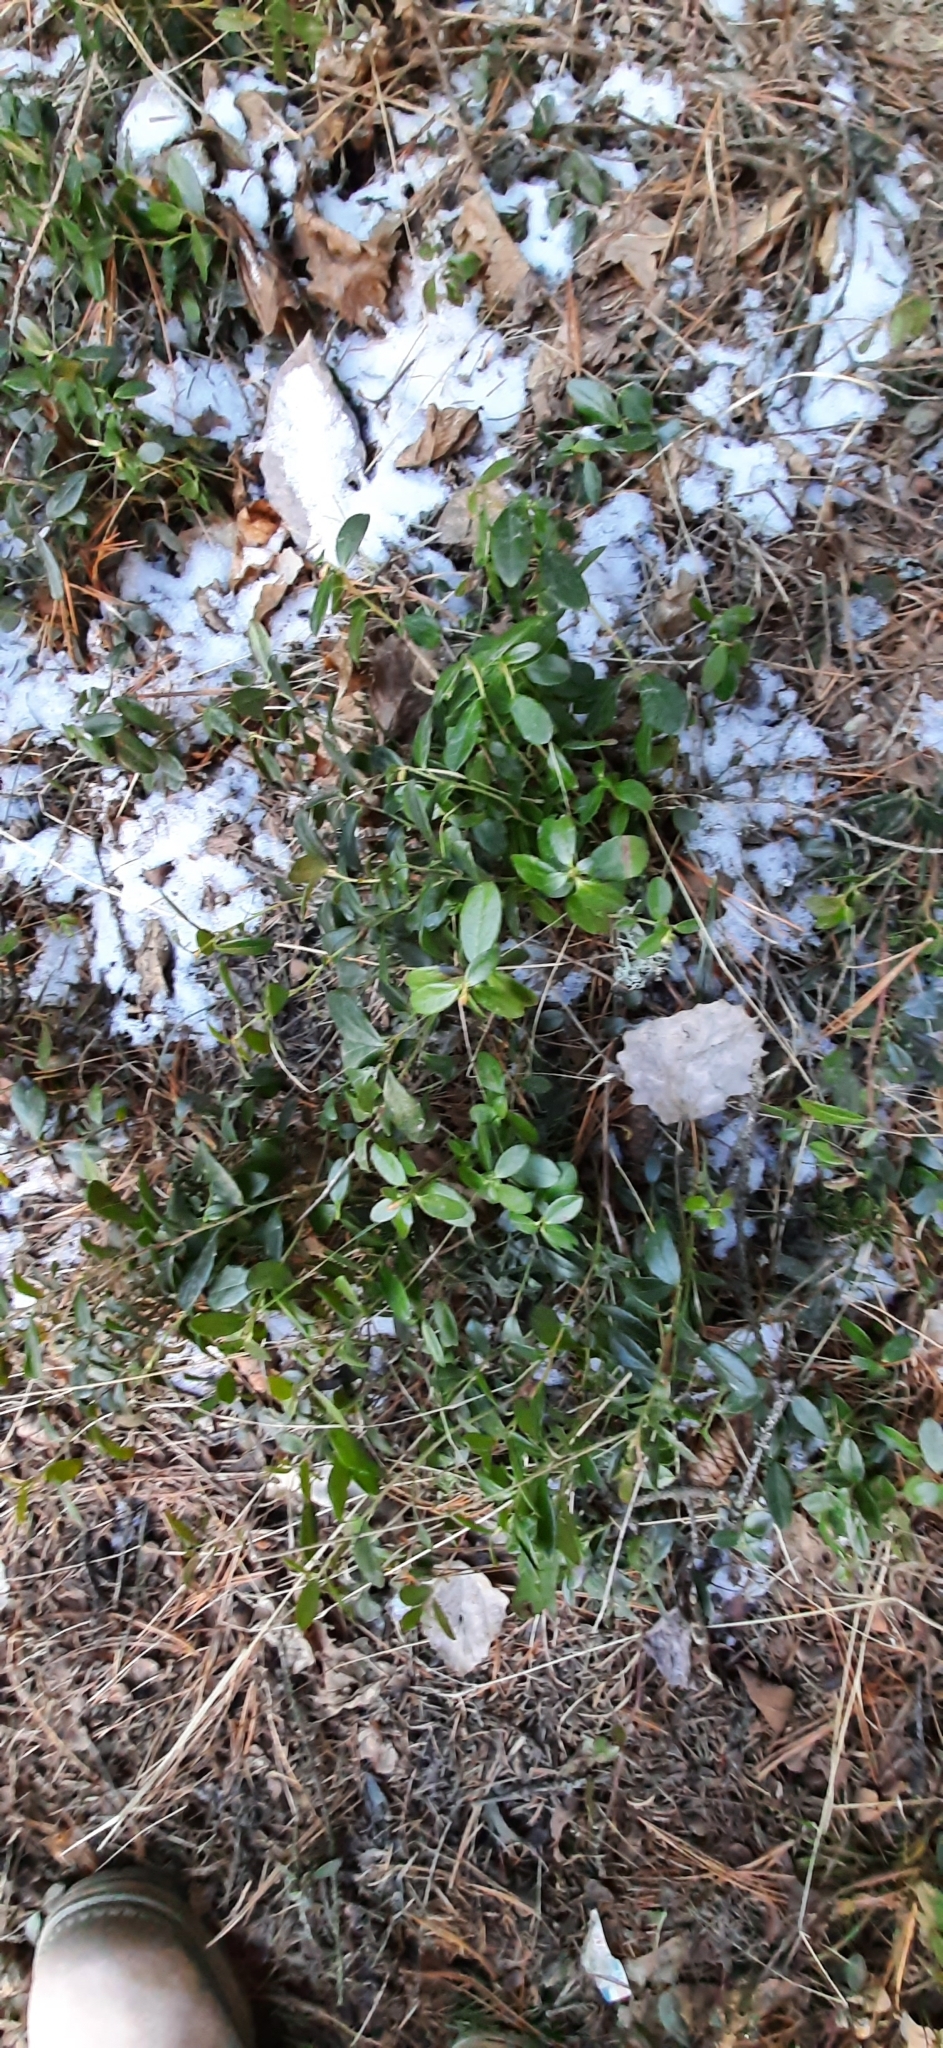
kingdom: Plantae
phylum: Tracheophyta
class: Magnoliopsida
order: Ericales
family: Ericaceae
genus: Vaccinium
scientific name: Vaccinium vitis-idaea
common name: Cowberry
